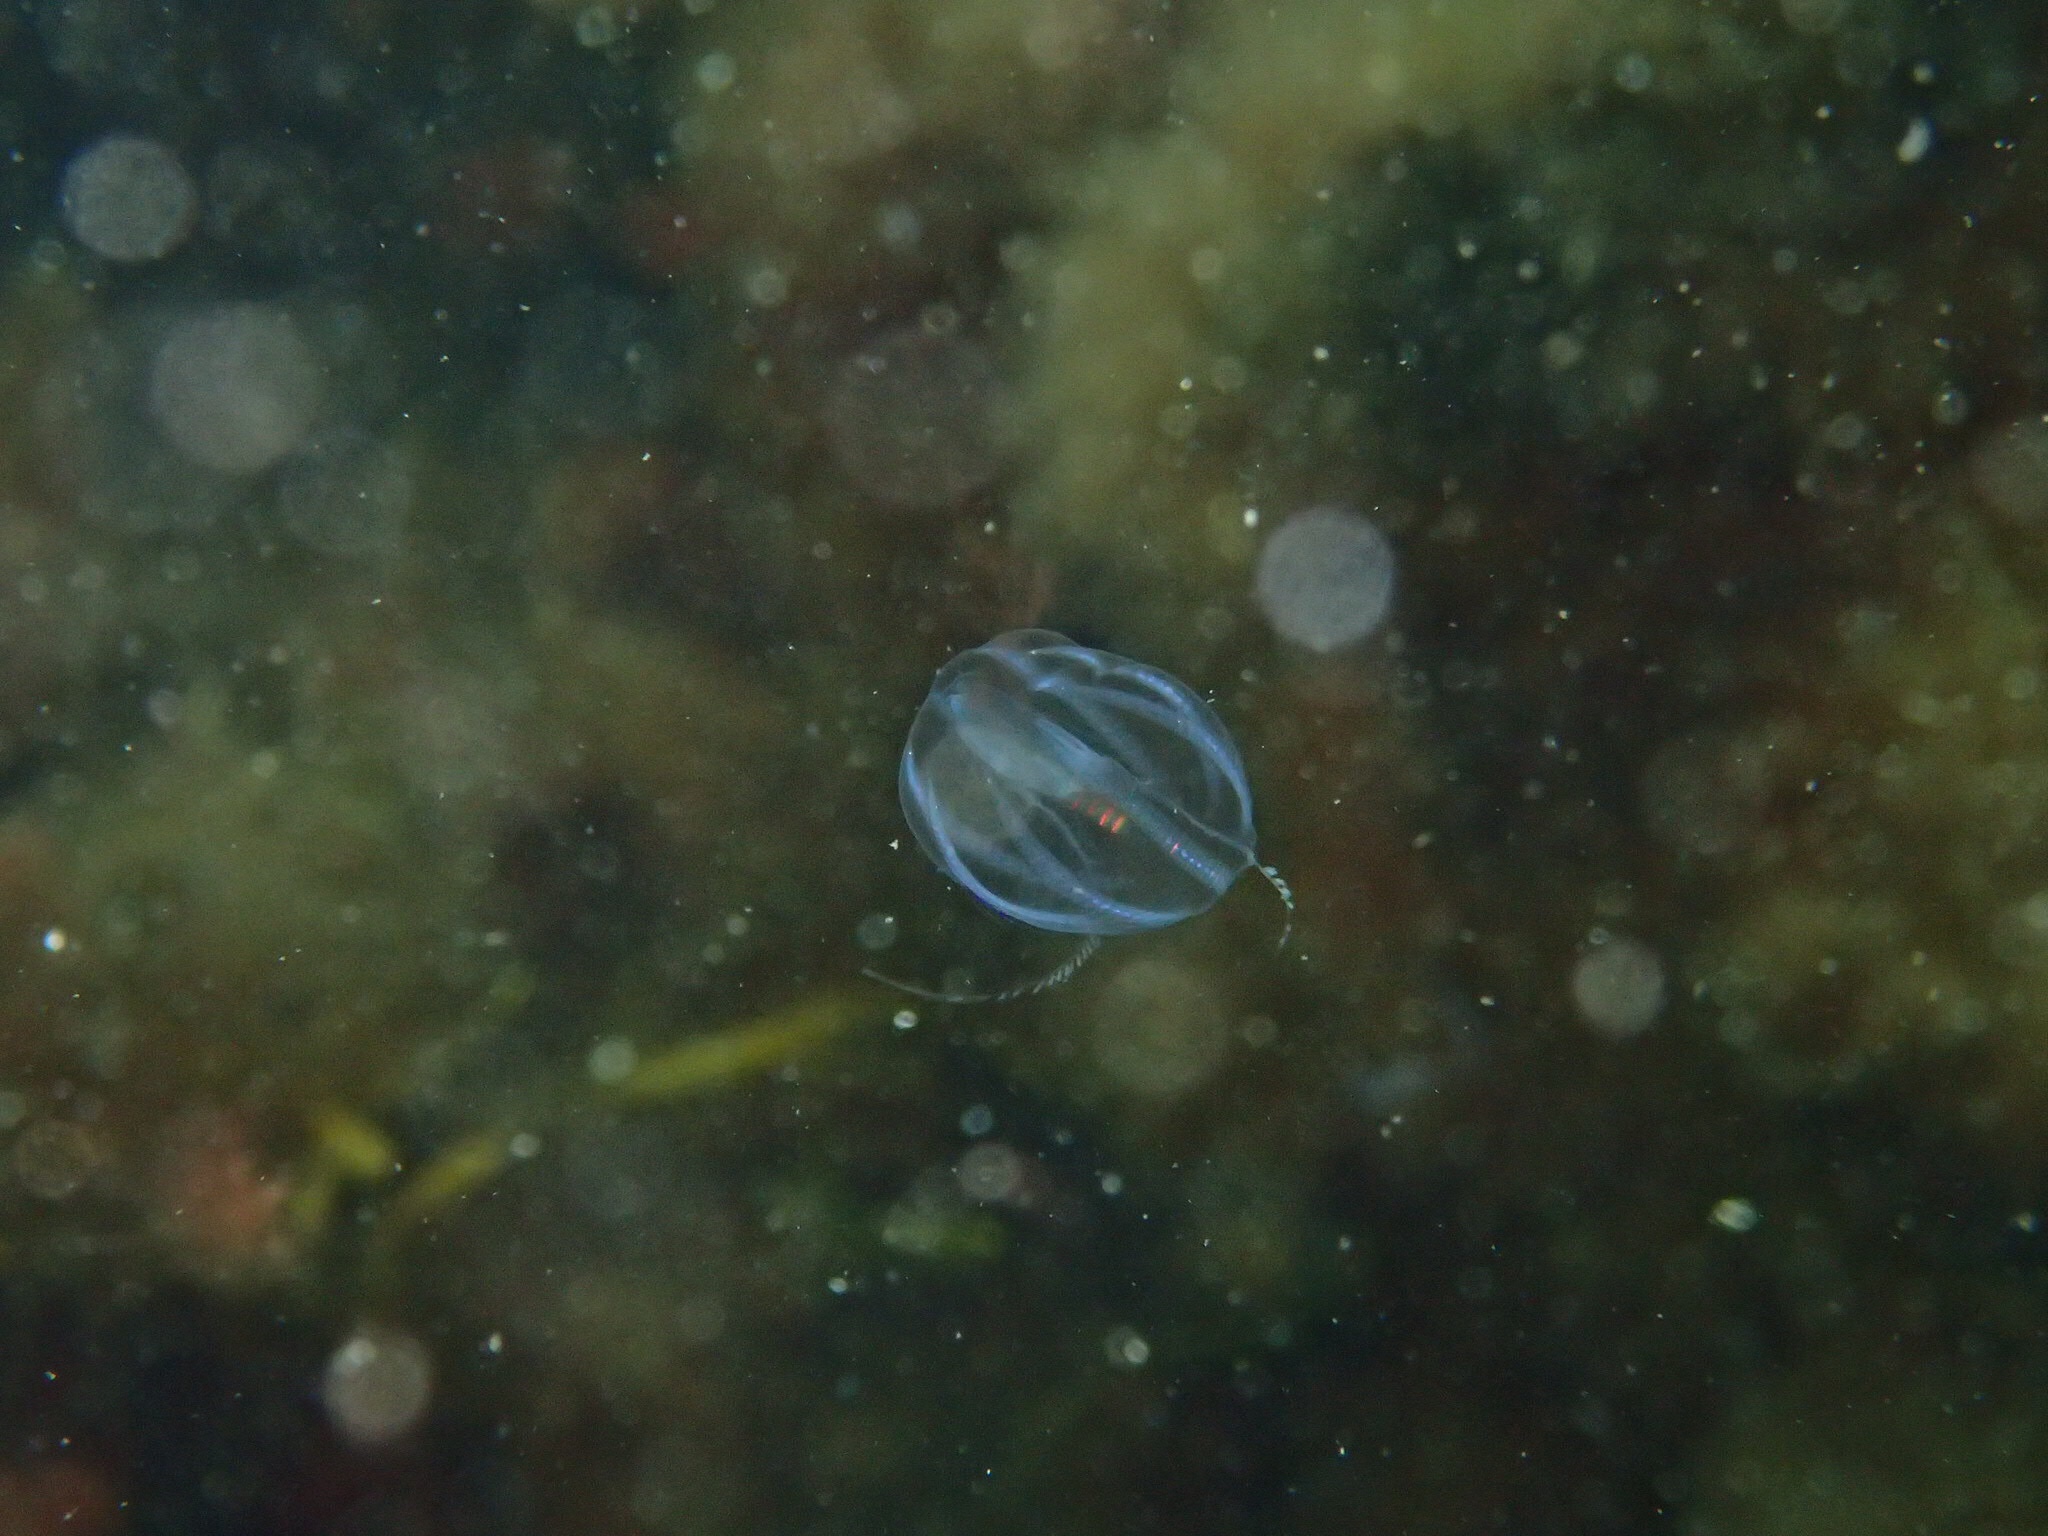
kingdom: Animalia
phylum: Ctenophora
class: Tentaculata
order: Cydippida
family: Pleurobrachiidae
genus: Pleurobrachia
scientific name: Pleurobrachia pileus
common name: Sea gooseberry
